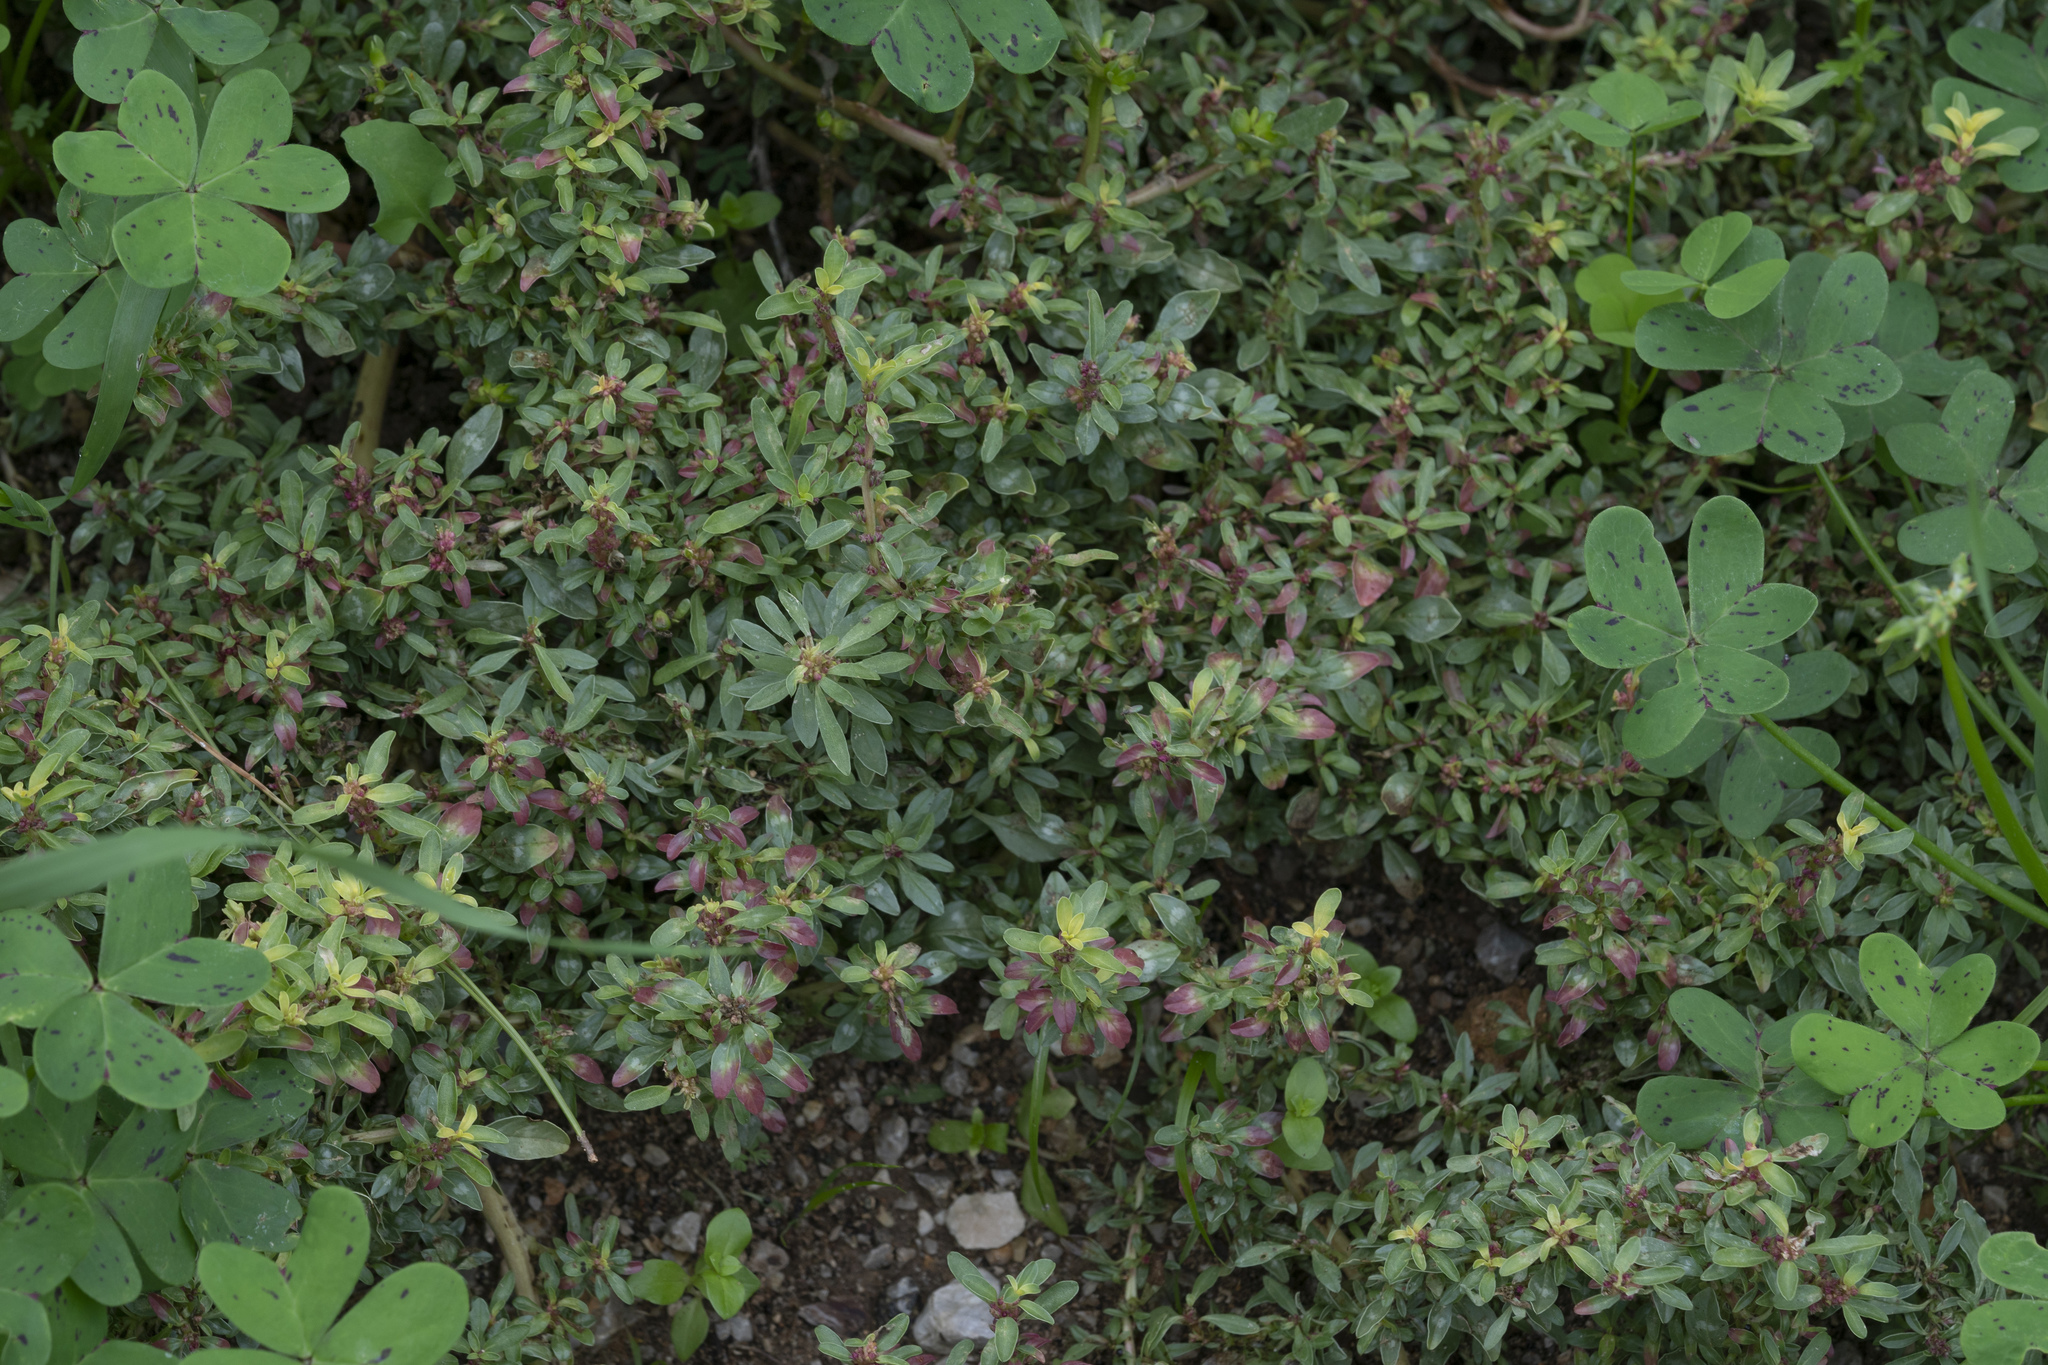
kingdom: Plantae
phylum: Tracheophyta
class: Magnoliopsida
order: Caryophyllales
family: Amaranthaceae
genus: Amaranthus
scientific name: Amaranthus blitoides
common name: Prostrate pigweed
